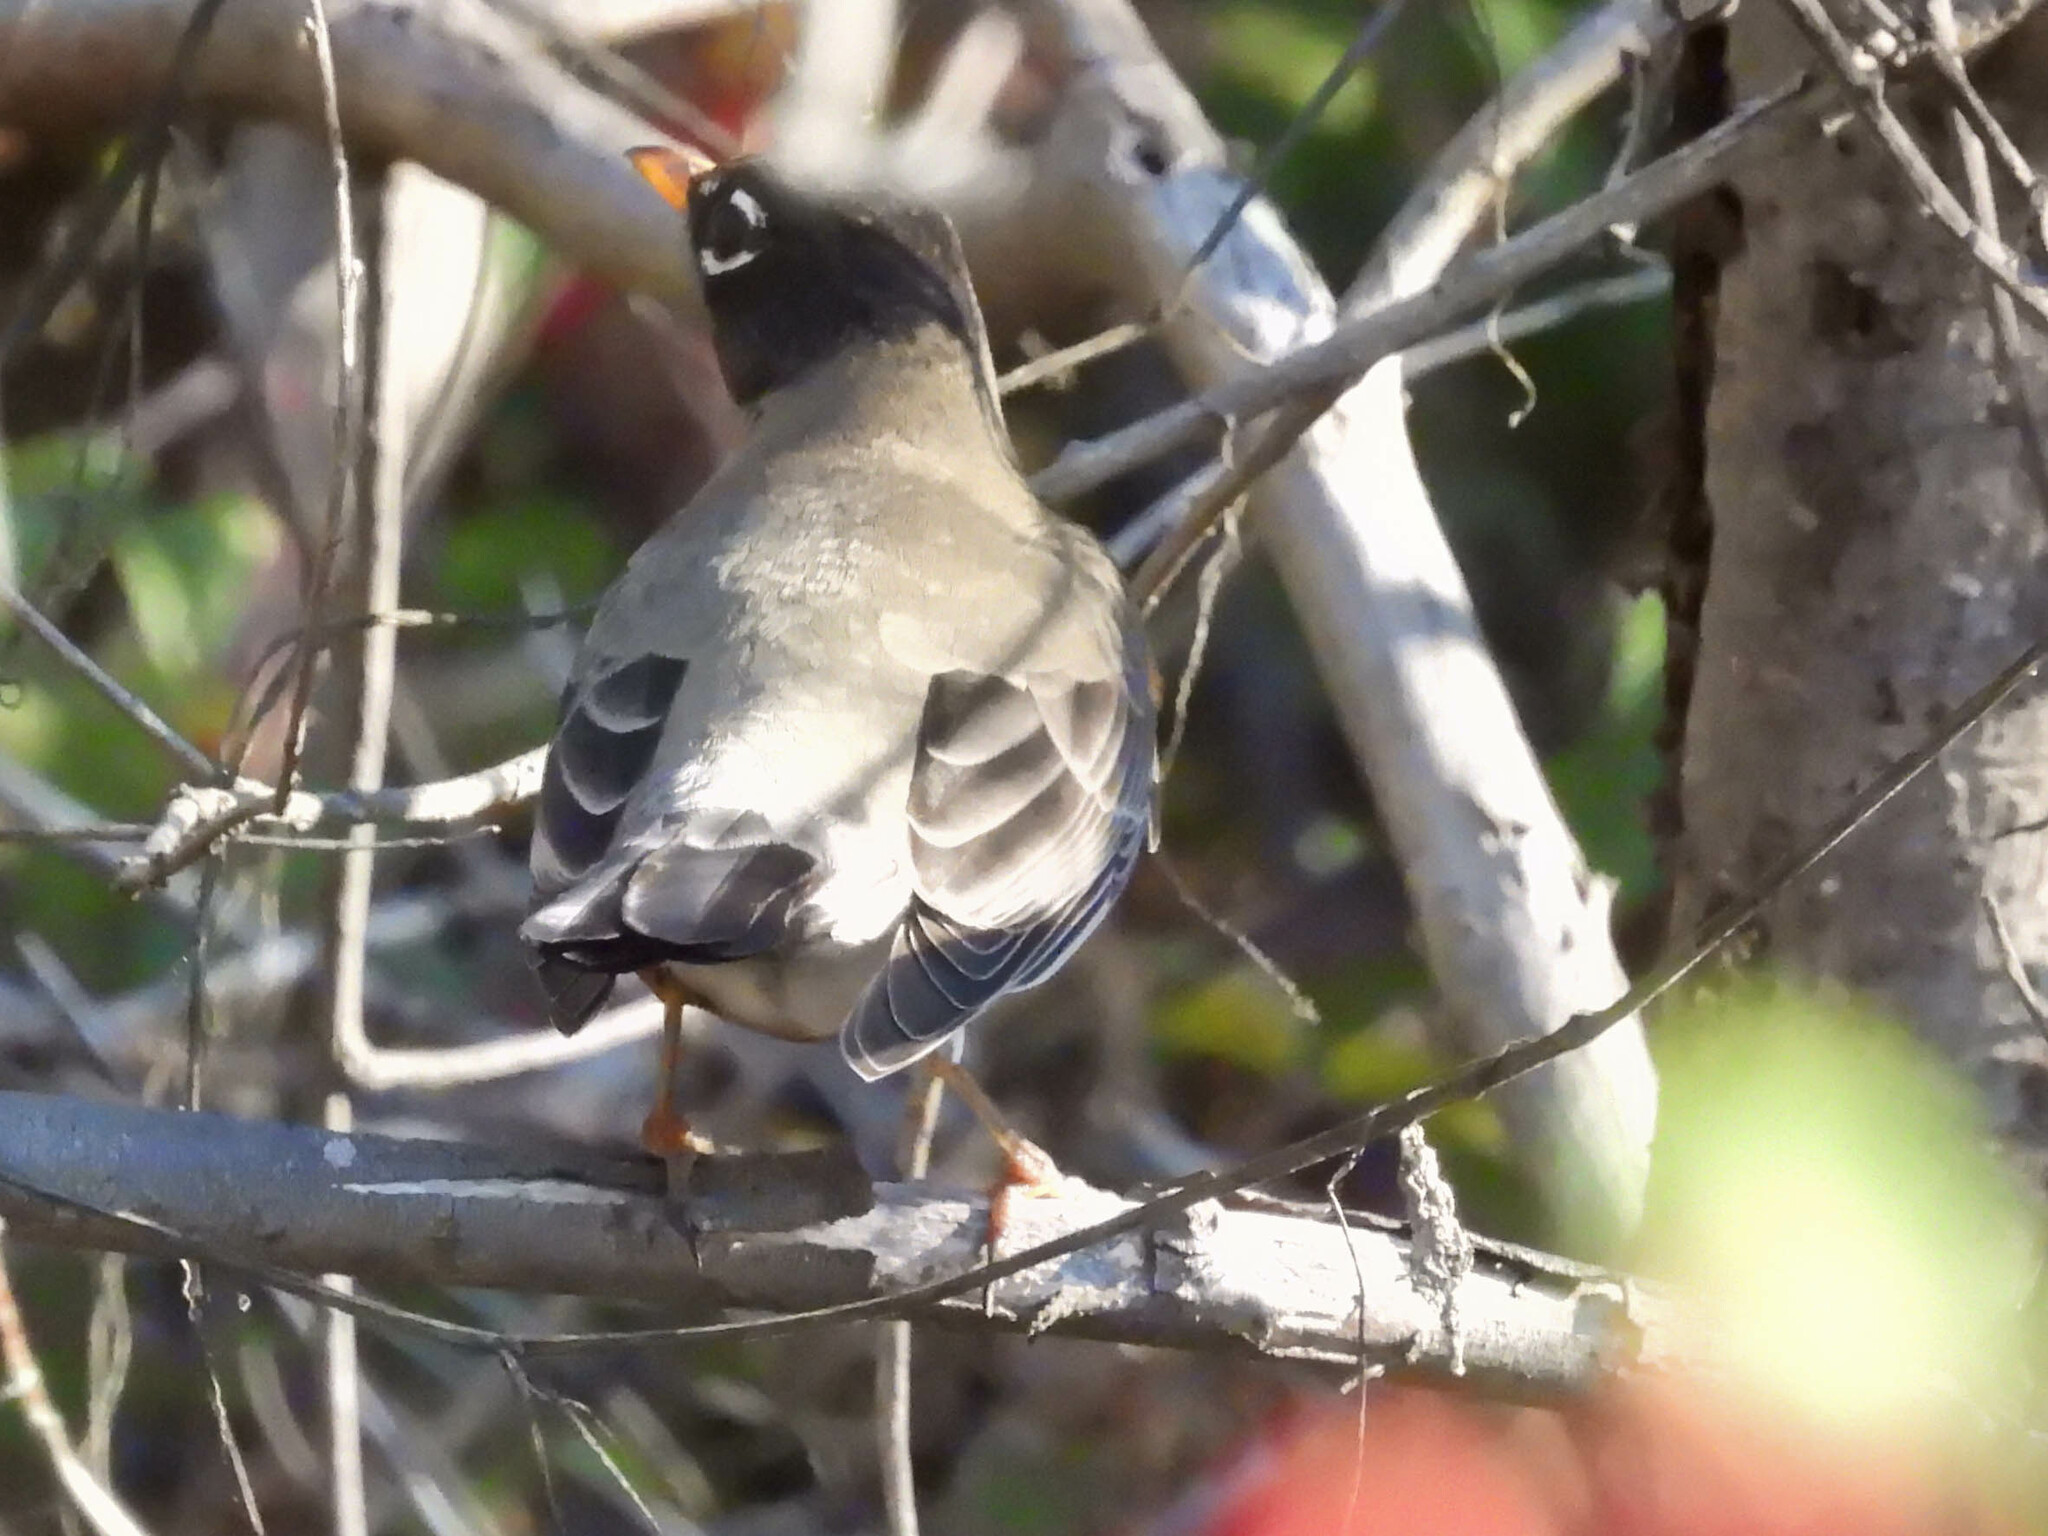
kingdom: Animalia
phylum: Chordata
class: Aves
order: Passeriformes
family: Turdidae
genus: Turdus
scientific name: Turdus migratorius
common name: American robin
